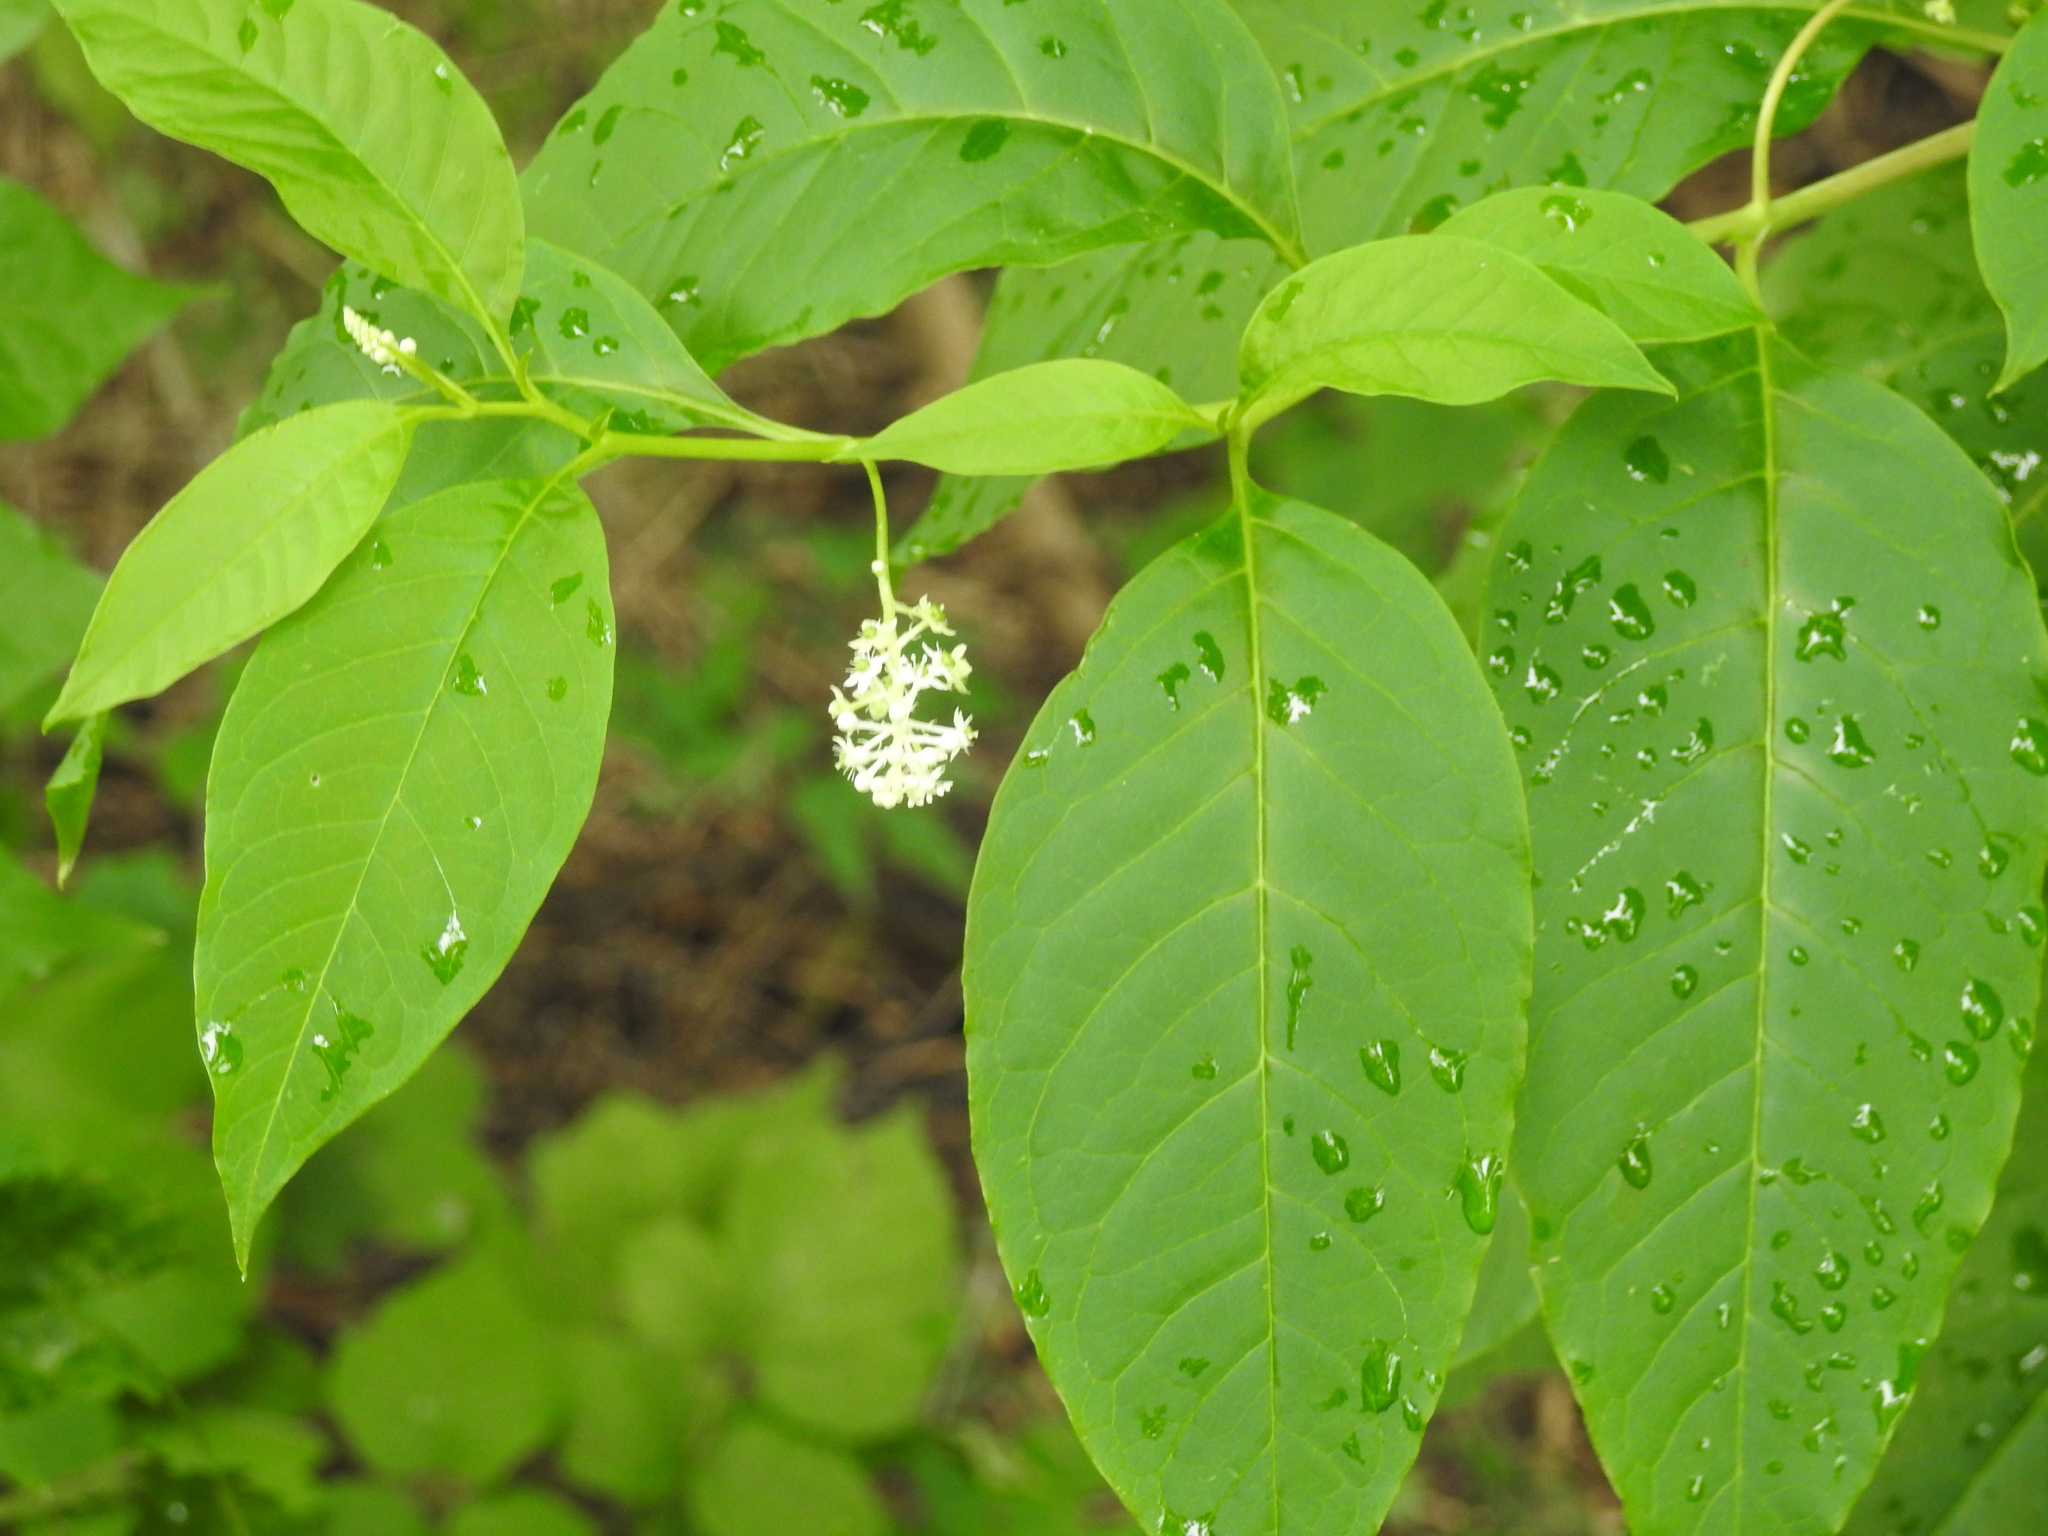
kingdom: Plantae
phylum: Tracheophyta
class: Magnoliopsida
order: Caryophyllales
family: Phytolaccaceae
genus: Phytolacca
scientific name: Phytolacca americana
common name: American pokeweed
